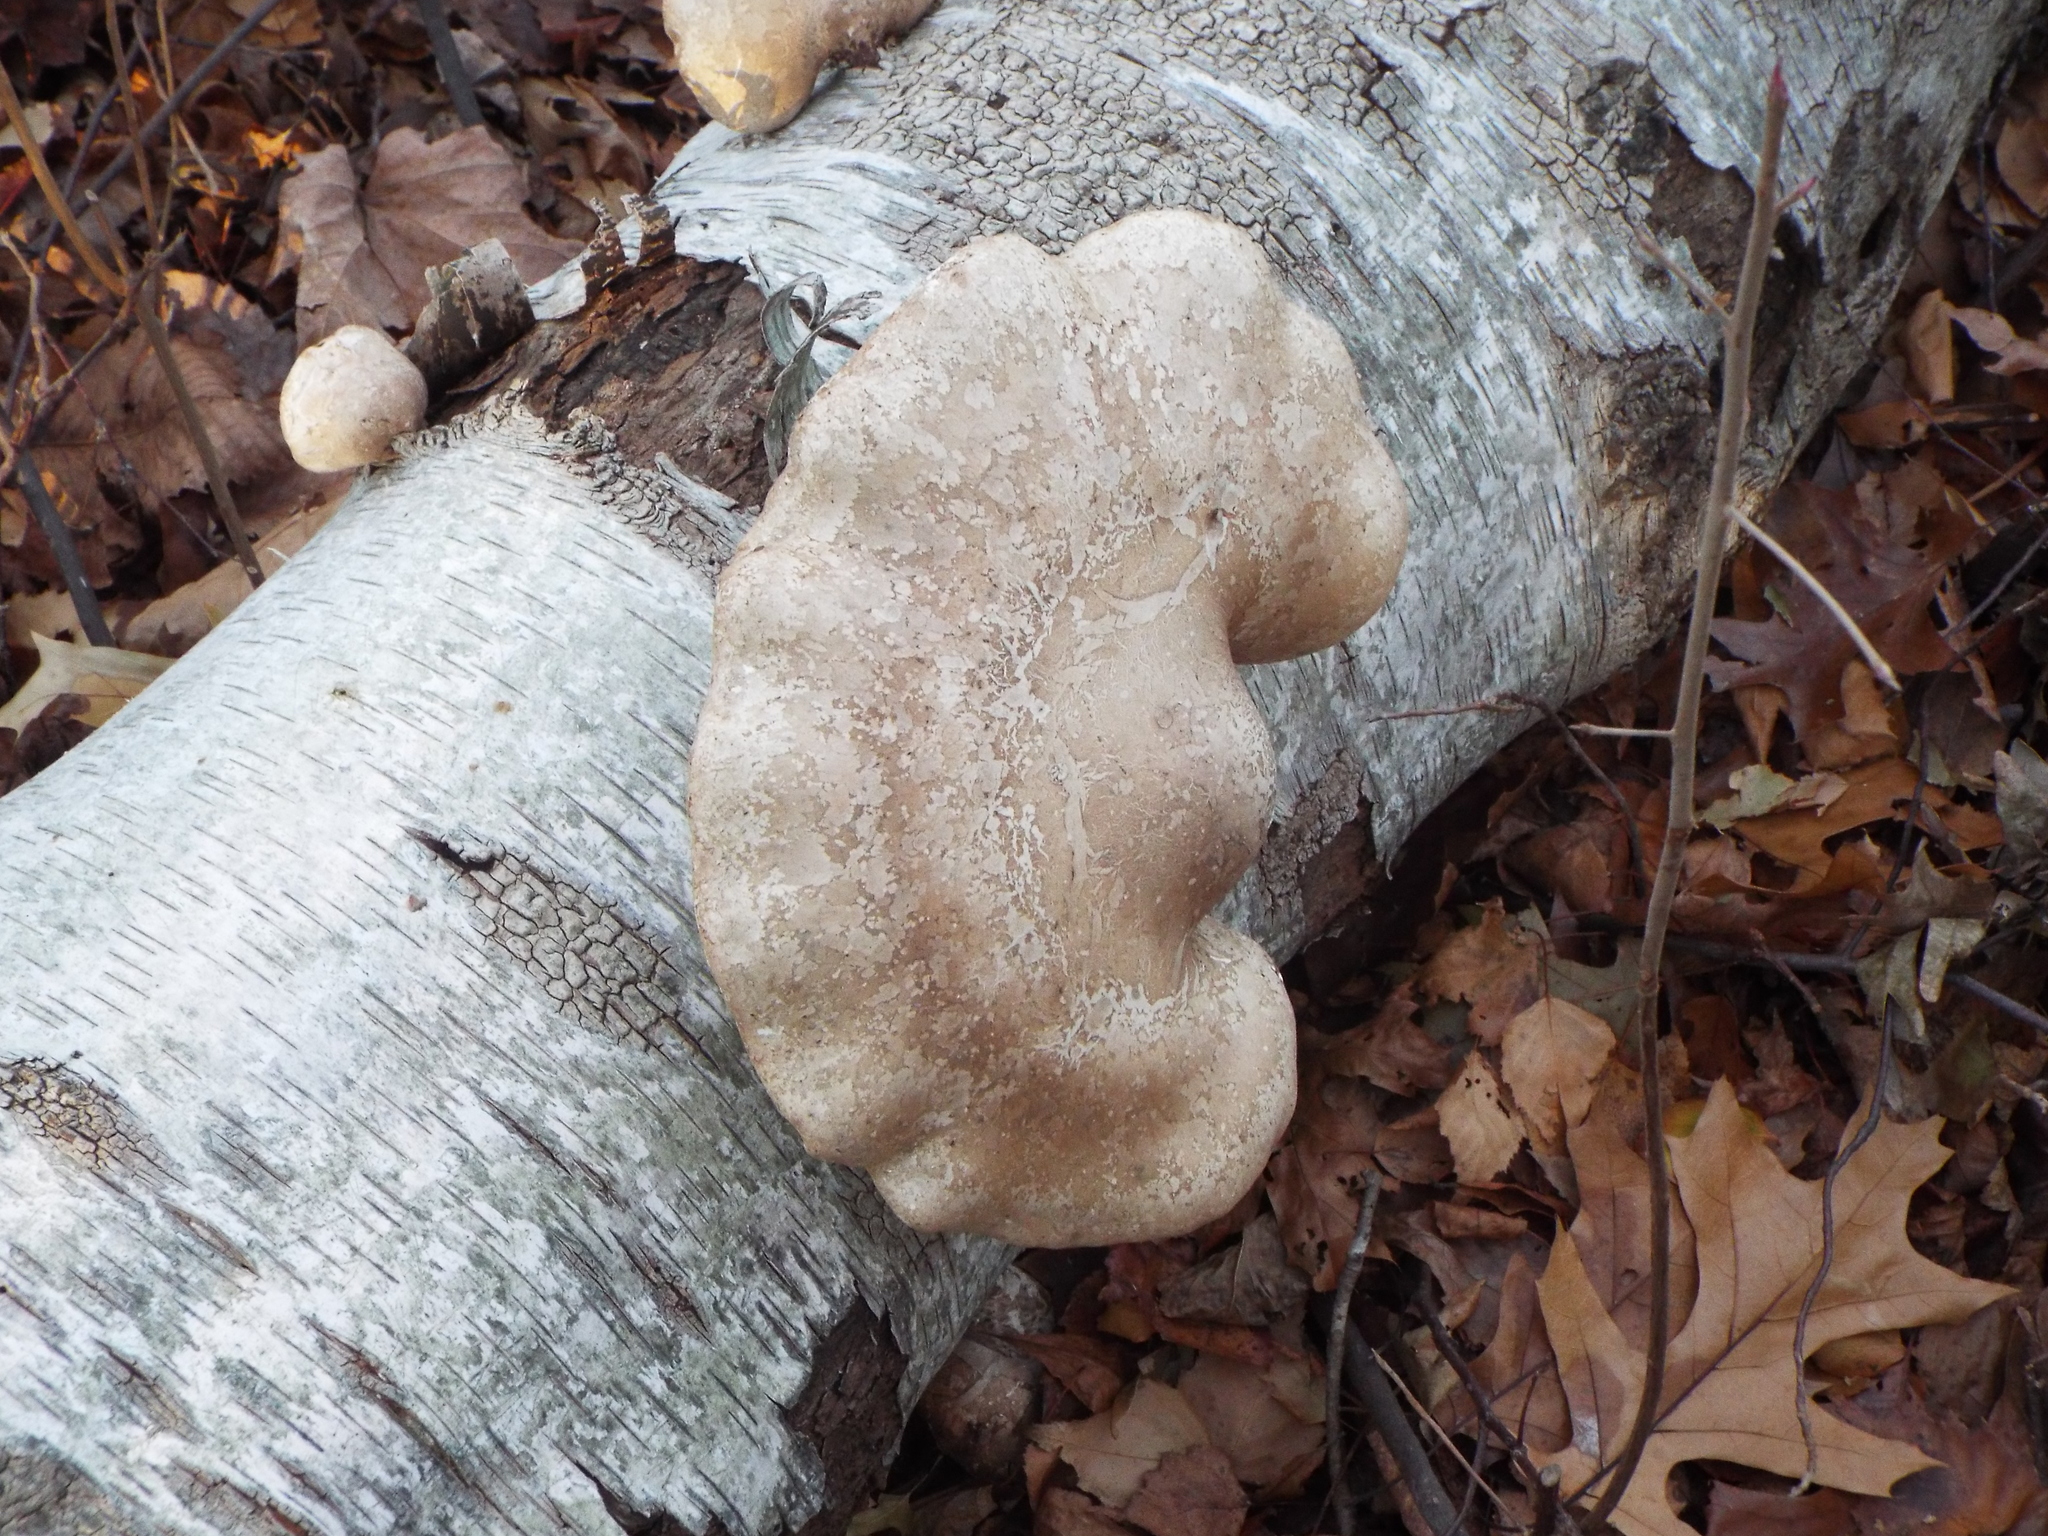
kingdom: Fungi
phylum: Basidiomycota
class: Agaricomycetes
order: Polyporales
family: Fomitopsidaceae
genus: Fomitopsis
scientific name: Fomitopsis betulina
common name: Birch polypore
